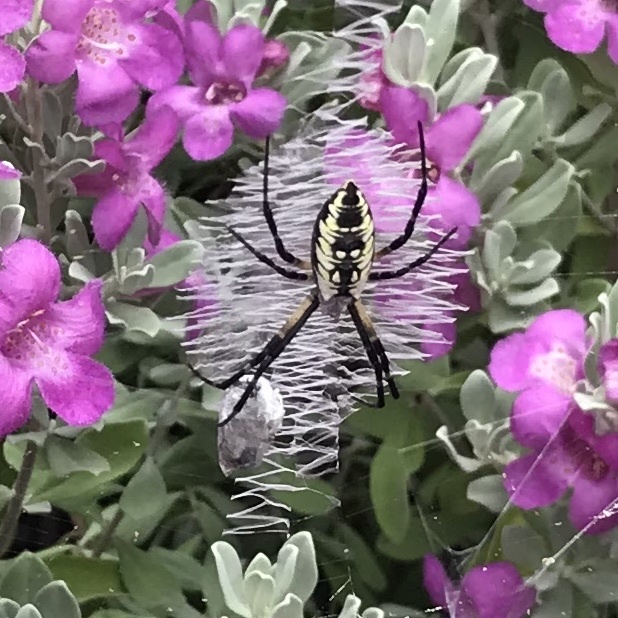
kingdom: Animalia
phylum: Arthropoda
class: Arachnida
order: Araneae
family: Araneidae
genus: Argiope
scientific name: Argiope aurantia
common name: Orb weavers
